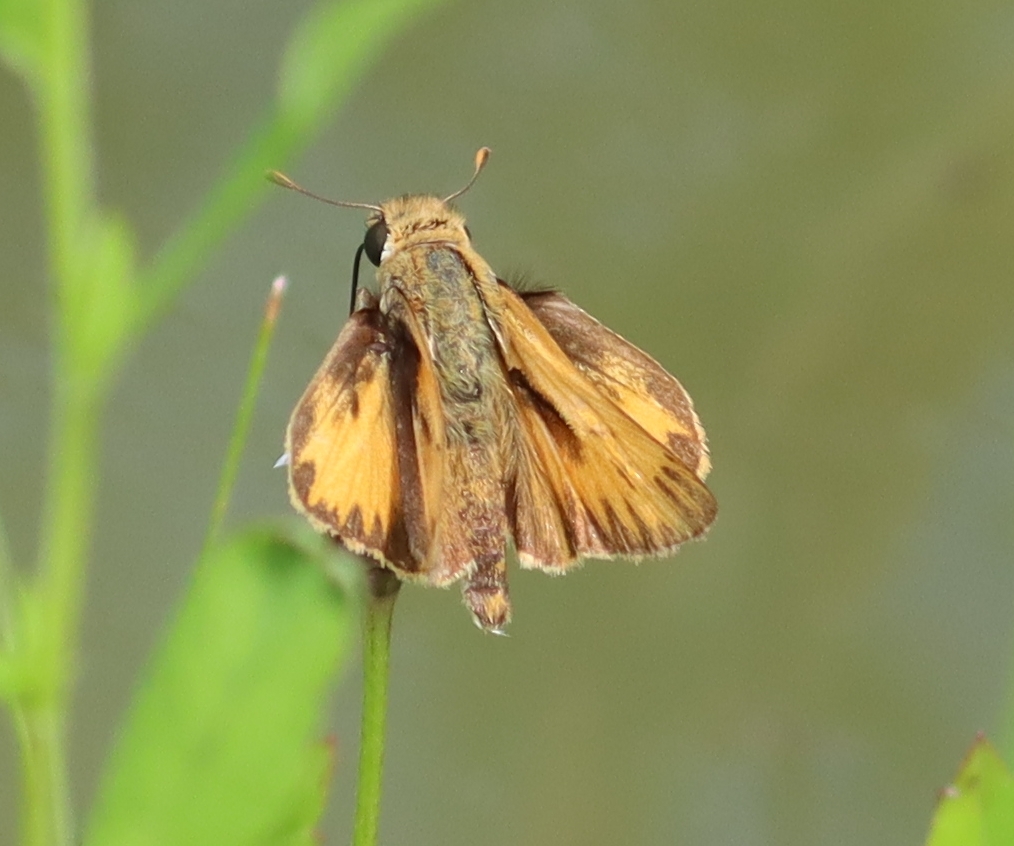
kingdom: Animalia
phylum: Arthropoda
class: Insecta
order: Lepidoptera
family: Hesperiidae
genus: Hylephila
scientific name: Hylephila phyleus
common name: Fiery skipper
